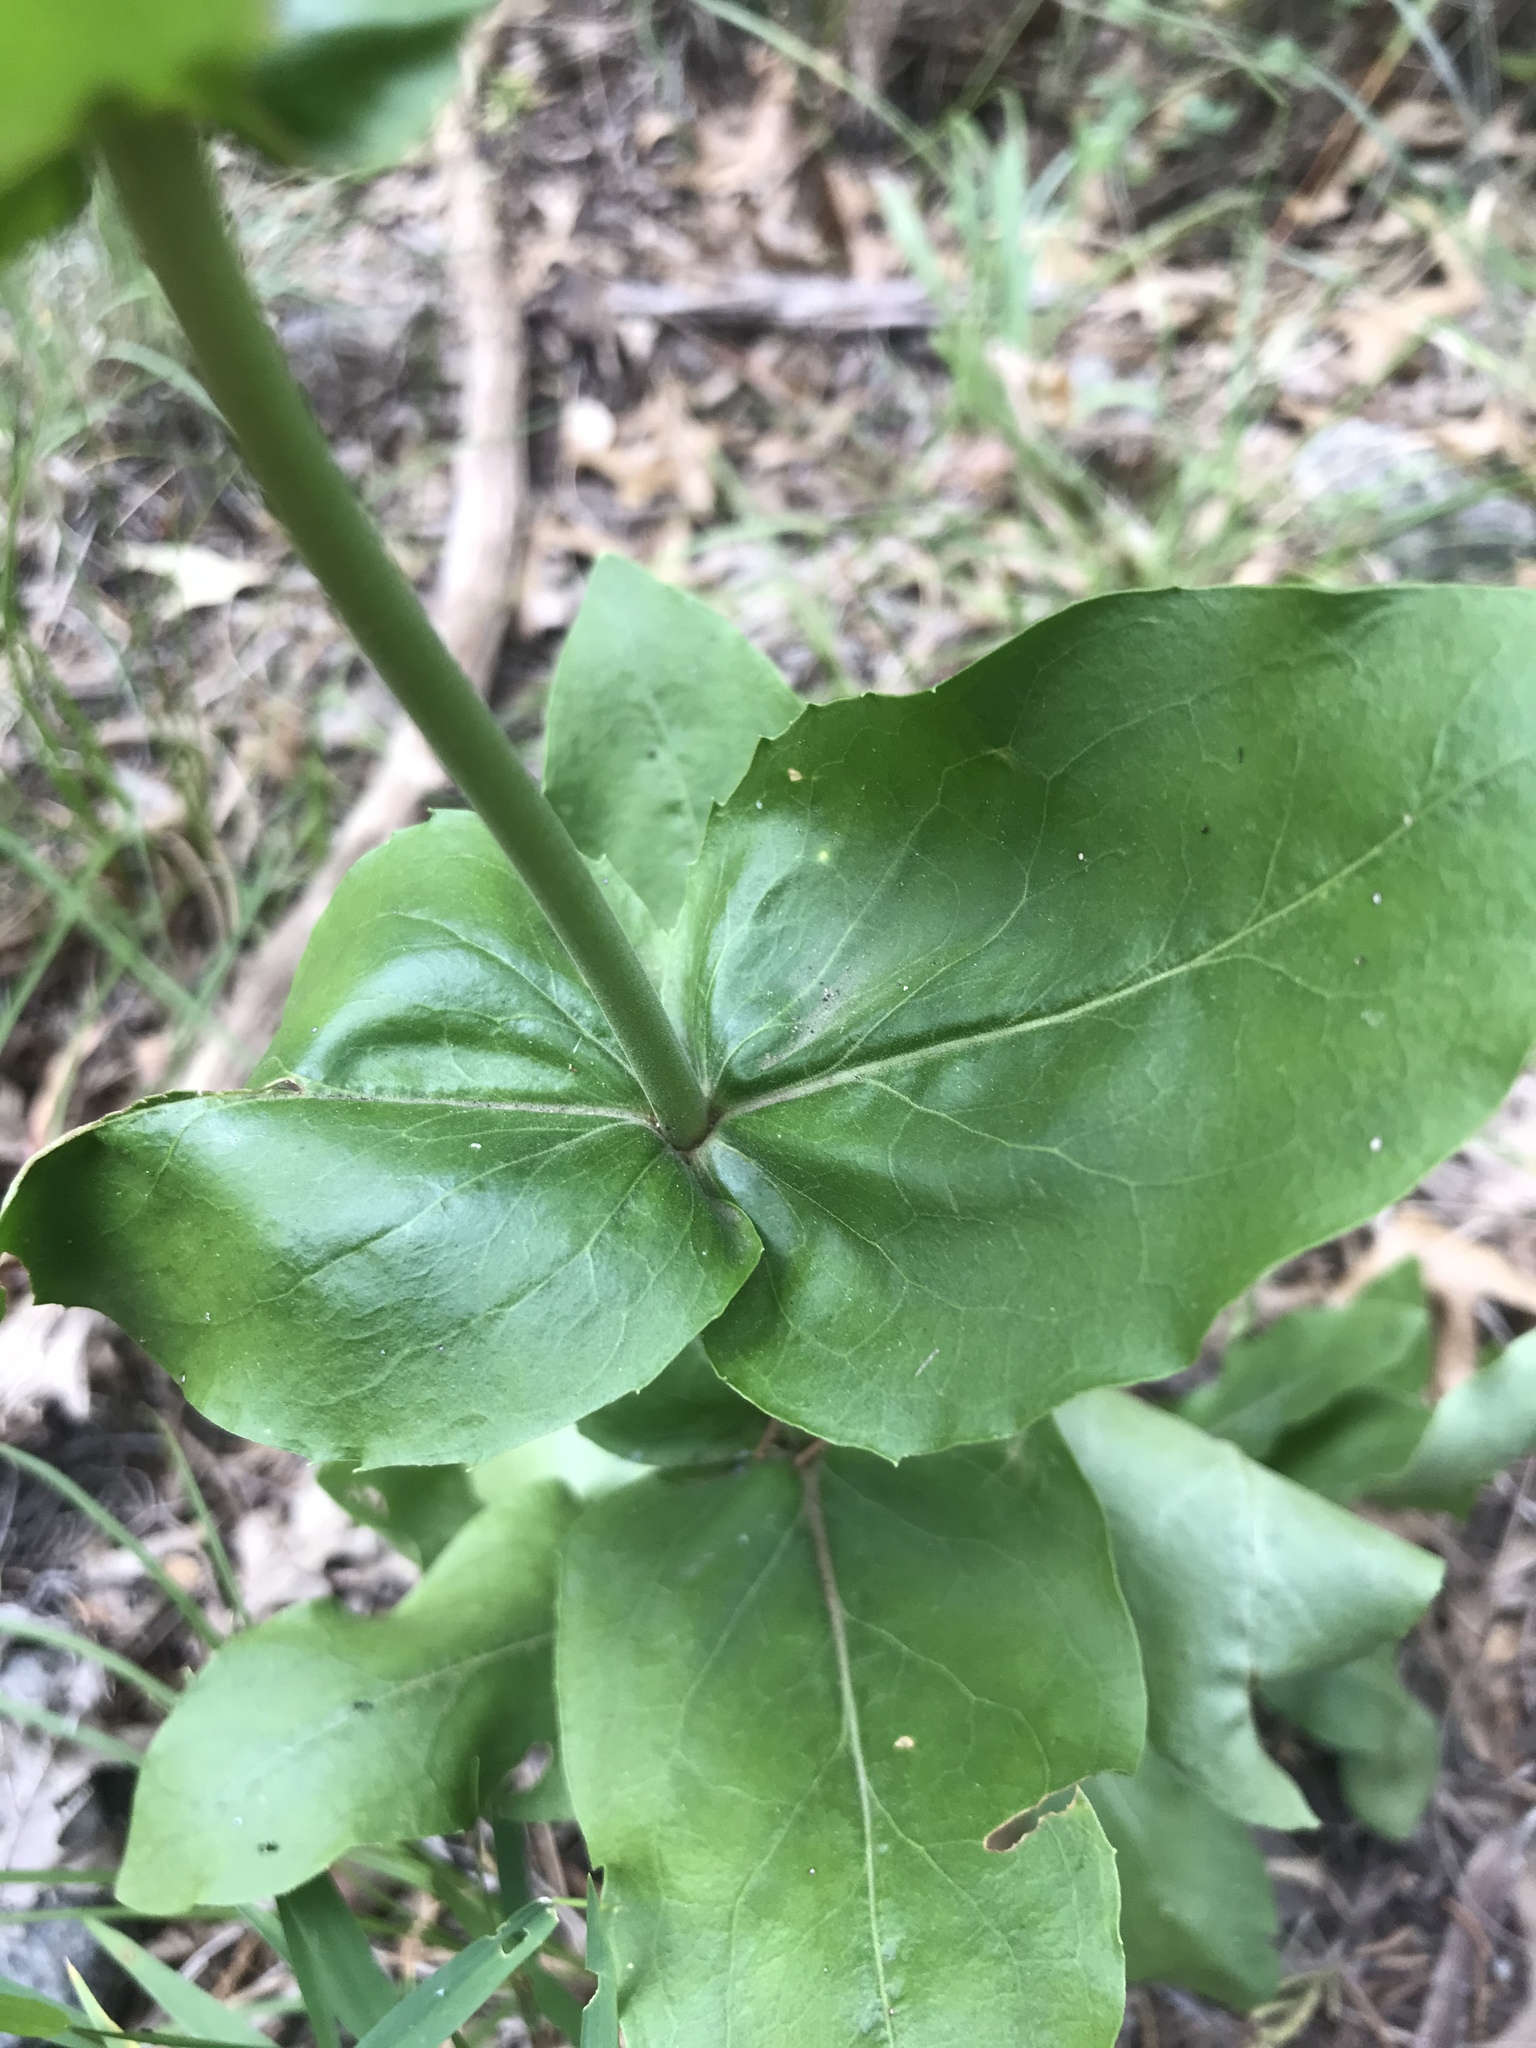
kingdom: Plantae
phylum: Tracheophyta
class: Magnoliopsida
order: Lamiales
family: Plantaginaceae
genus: Penstemon
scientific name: Penstemon triflorus
